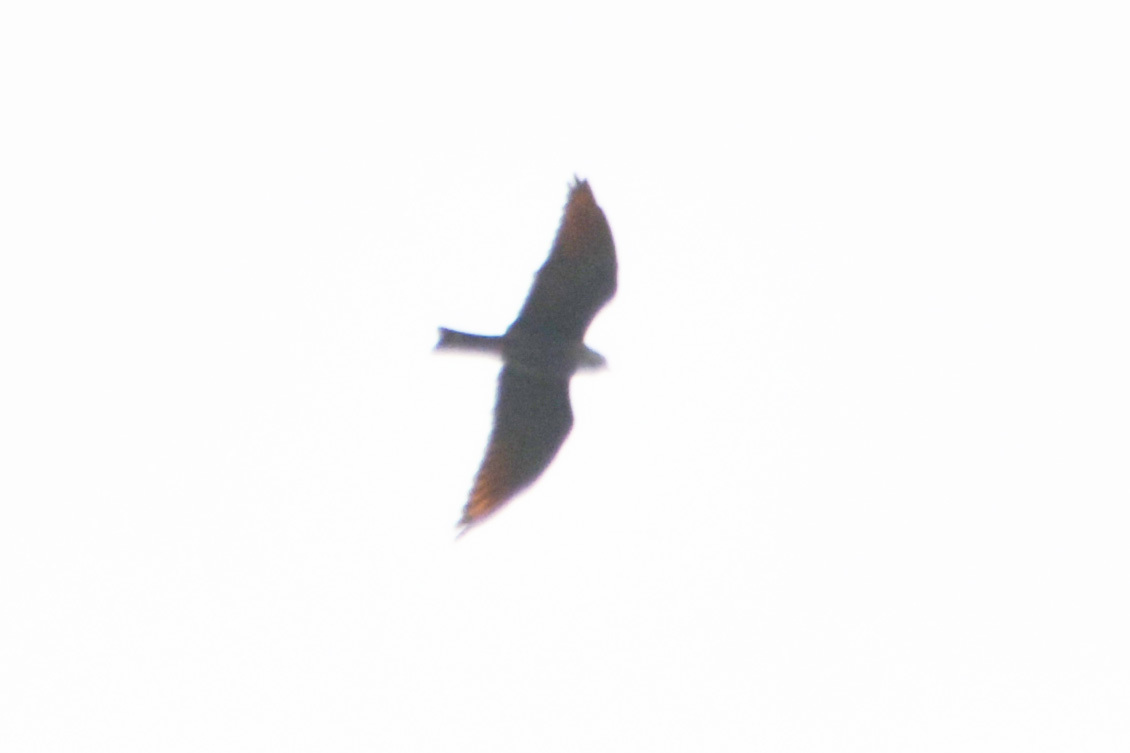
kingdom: Animalia
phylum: Chordata
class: Aves
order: Accipitriformes
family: Accipitridae
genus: Ictinia
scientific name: Ictinia plumbea
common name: Plumbeous kite
